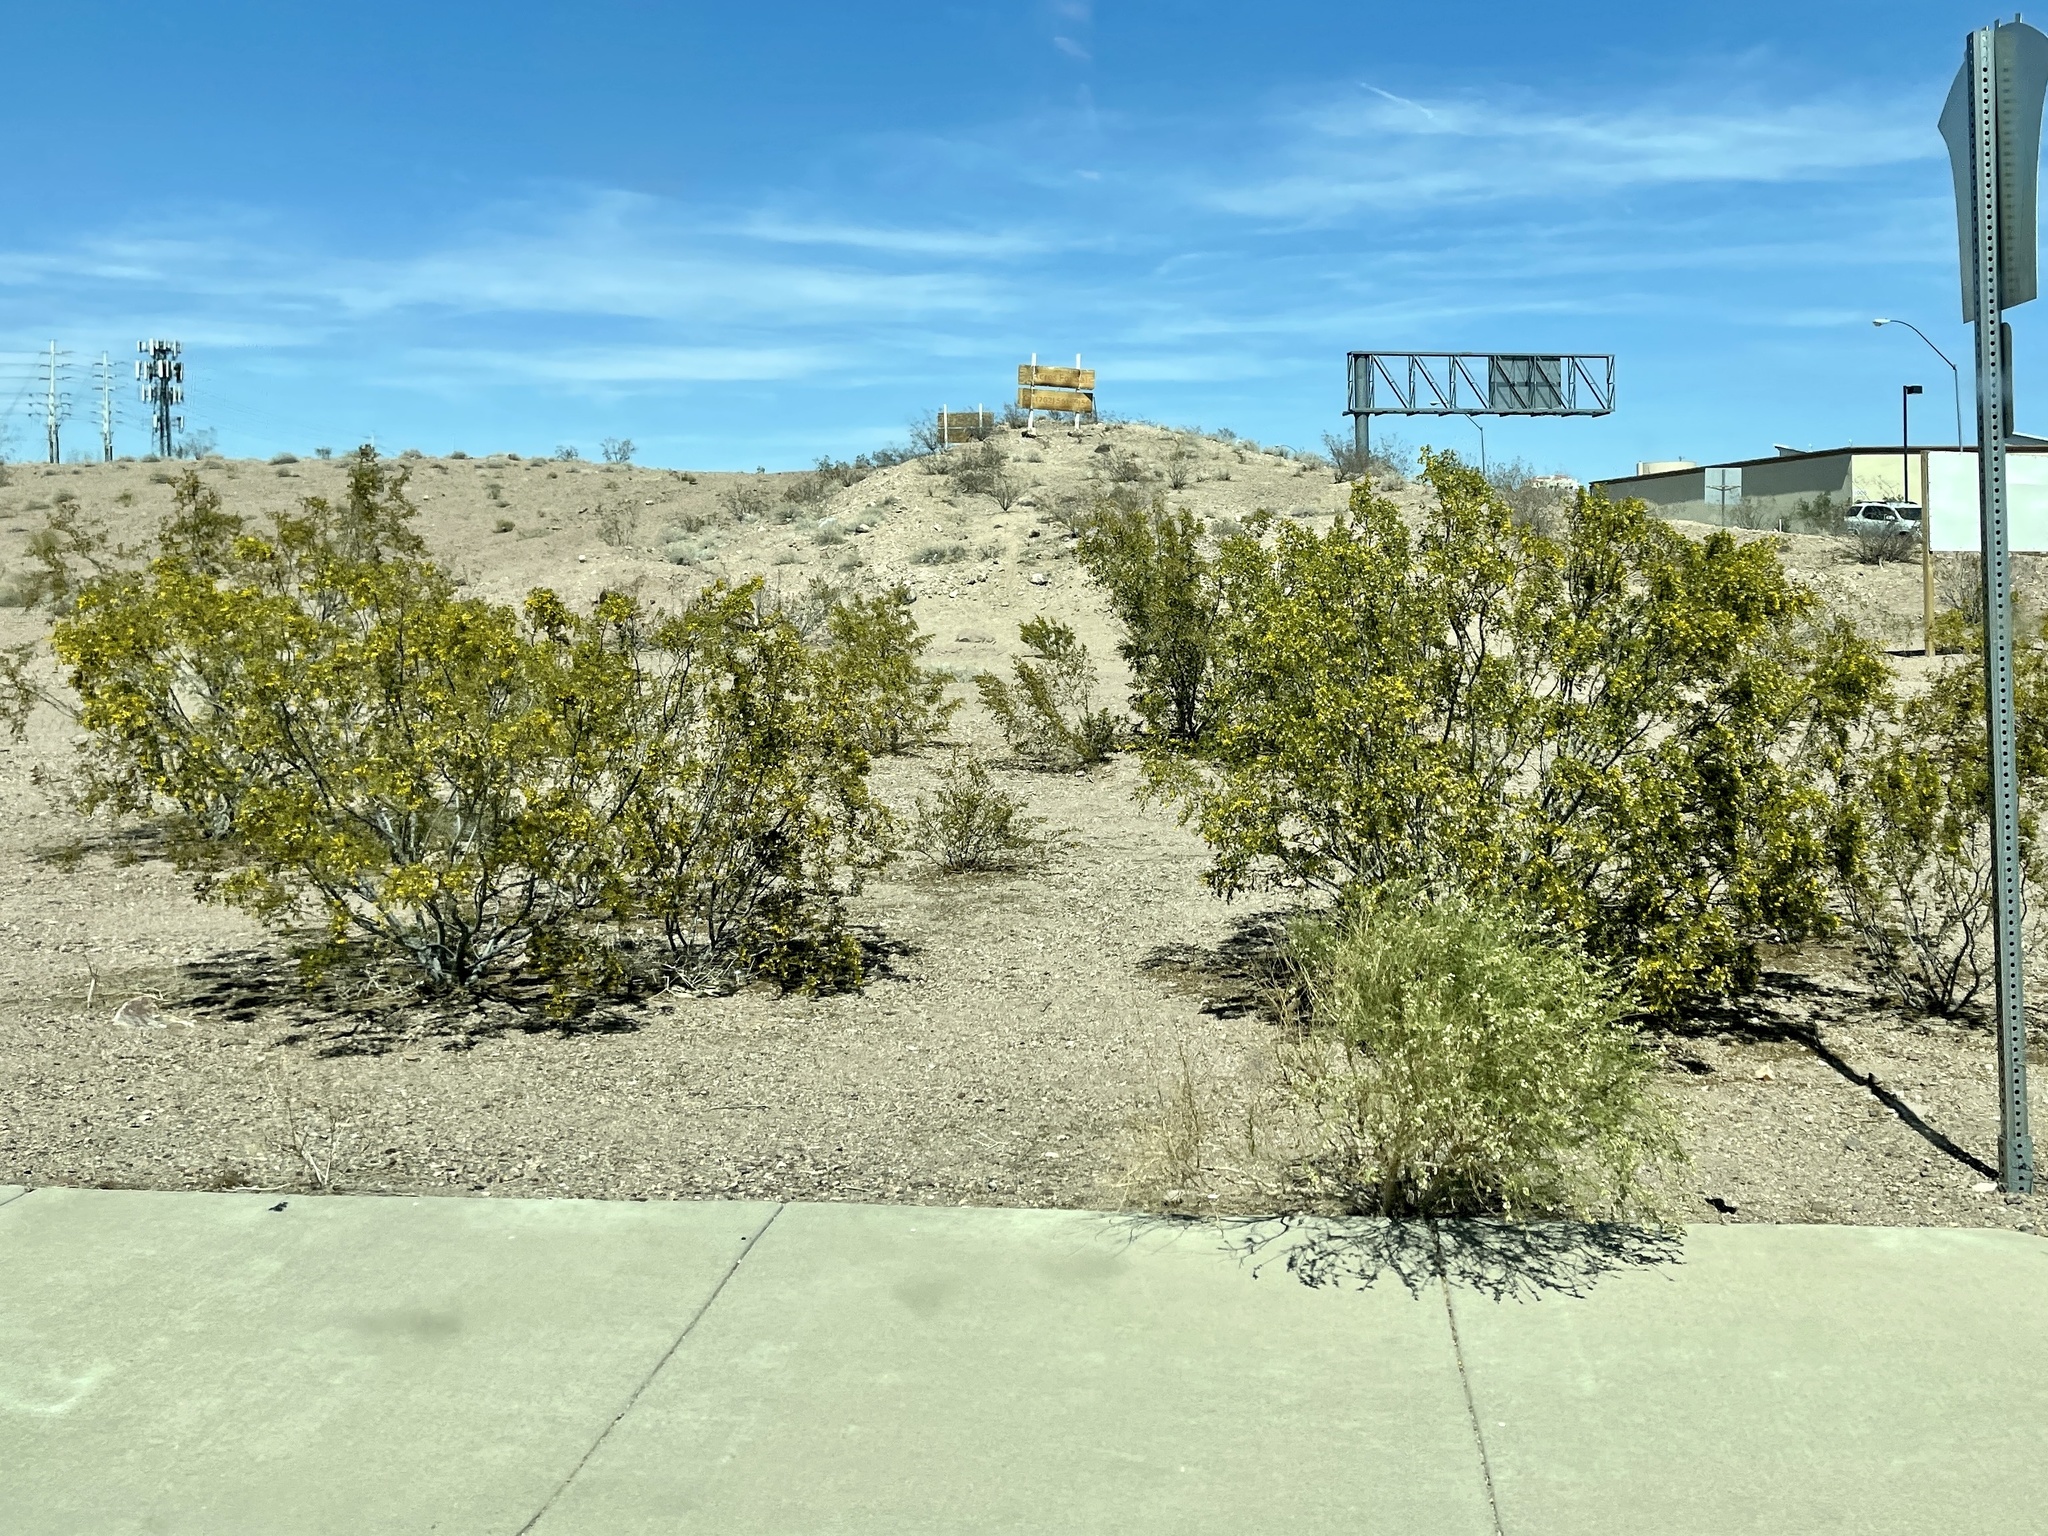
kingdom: Plantae
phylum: Tracheophyta
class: Magnoliopsida
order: Zygophyllales
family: Zygophyllaceae
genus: Larrea
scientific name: Larrea tridentata
